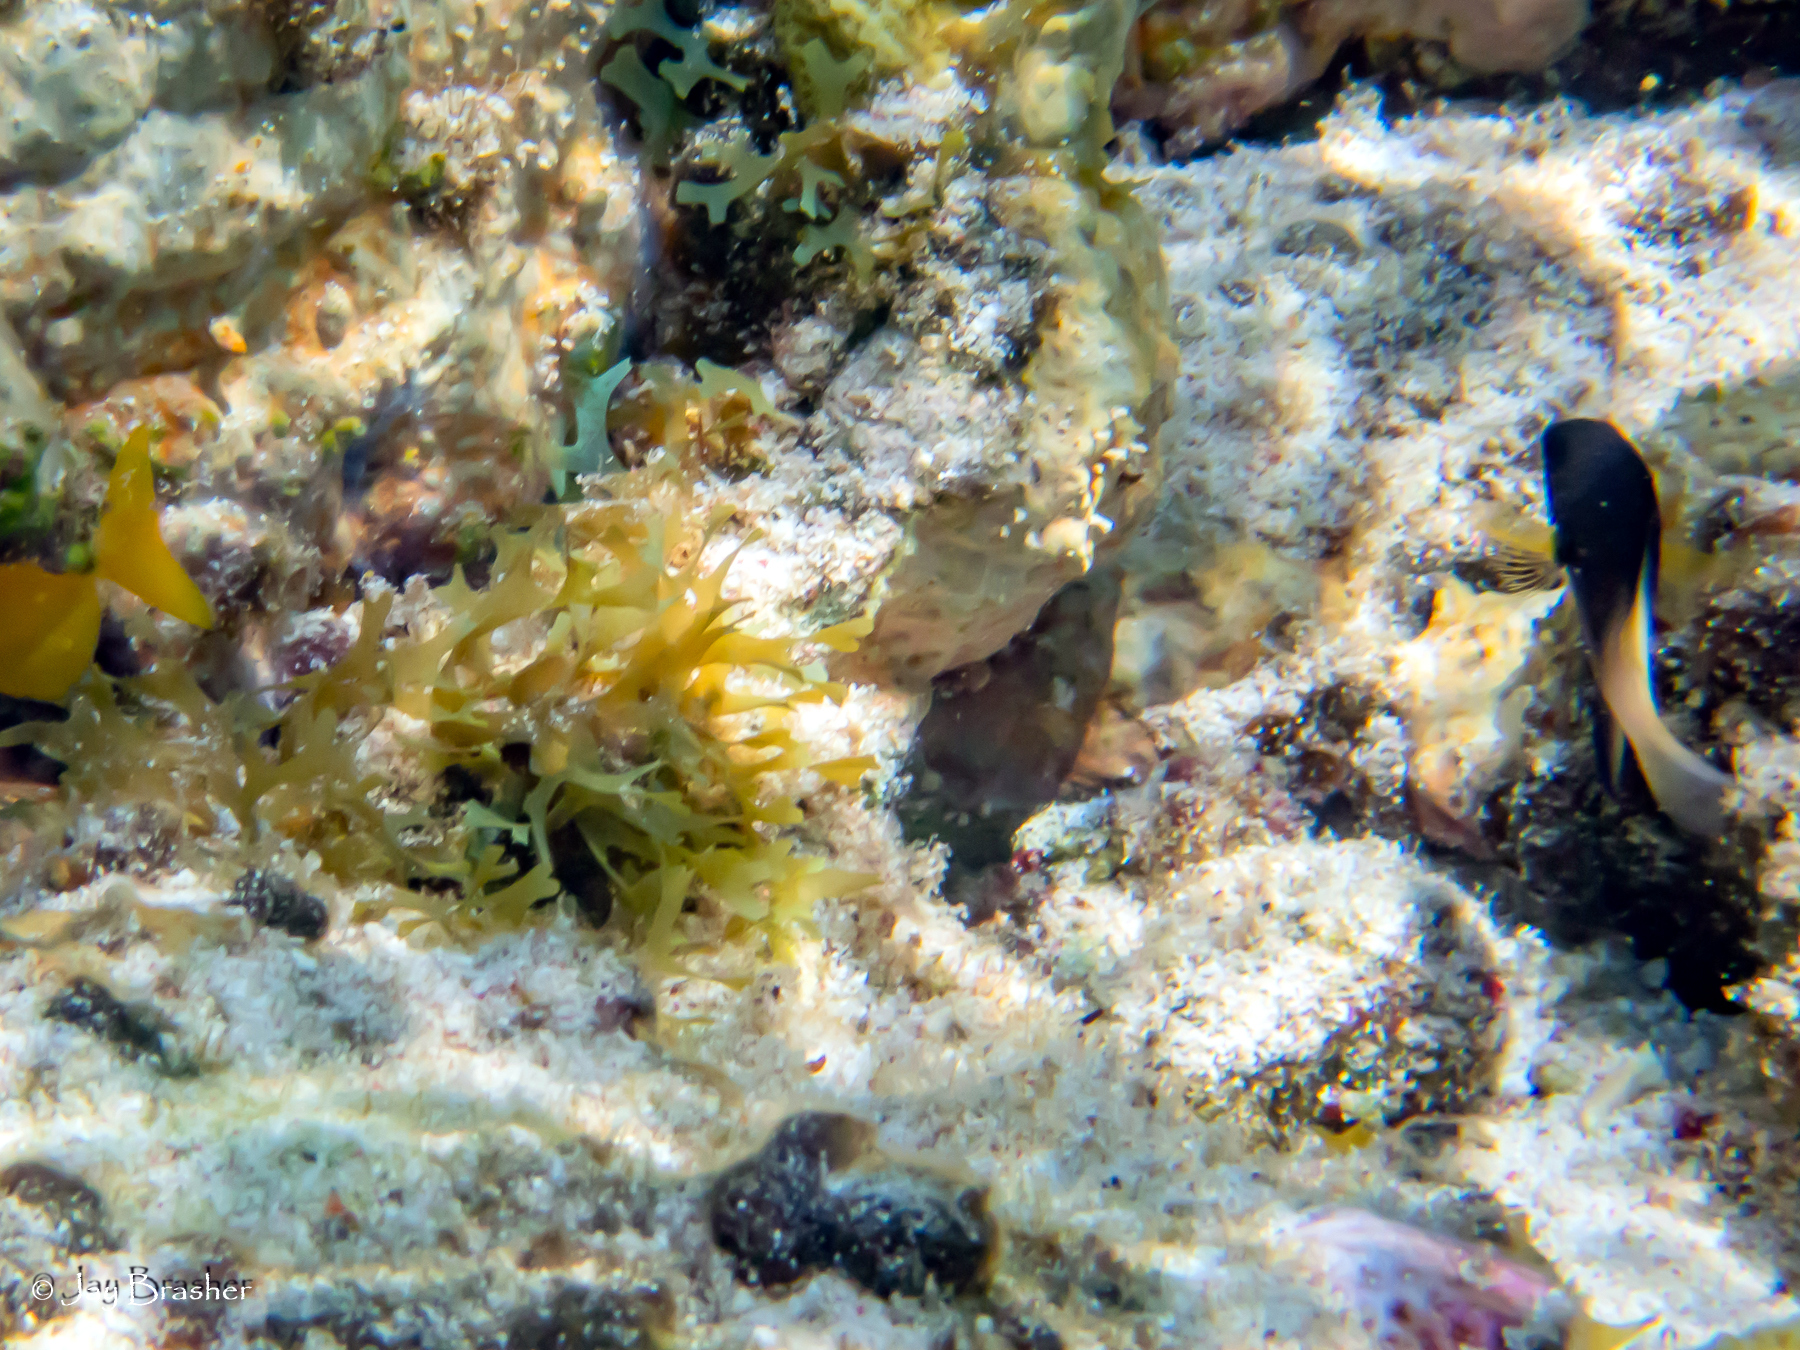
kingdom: Animalia
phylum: Chordata
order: Perciformes
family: Pomacentridae
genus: Stegastes
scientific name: Stegastes partitus
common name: Bicolor damselfish
